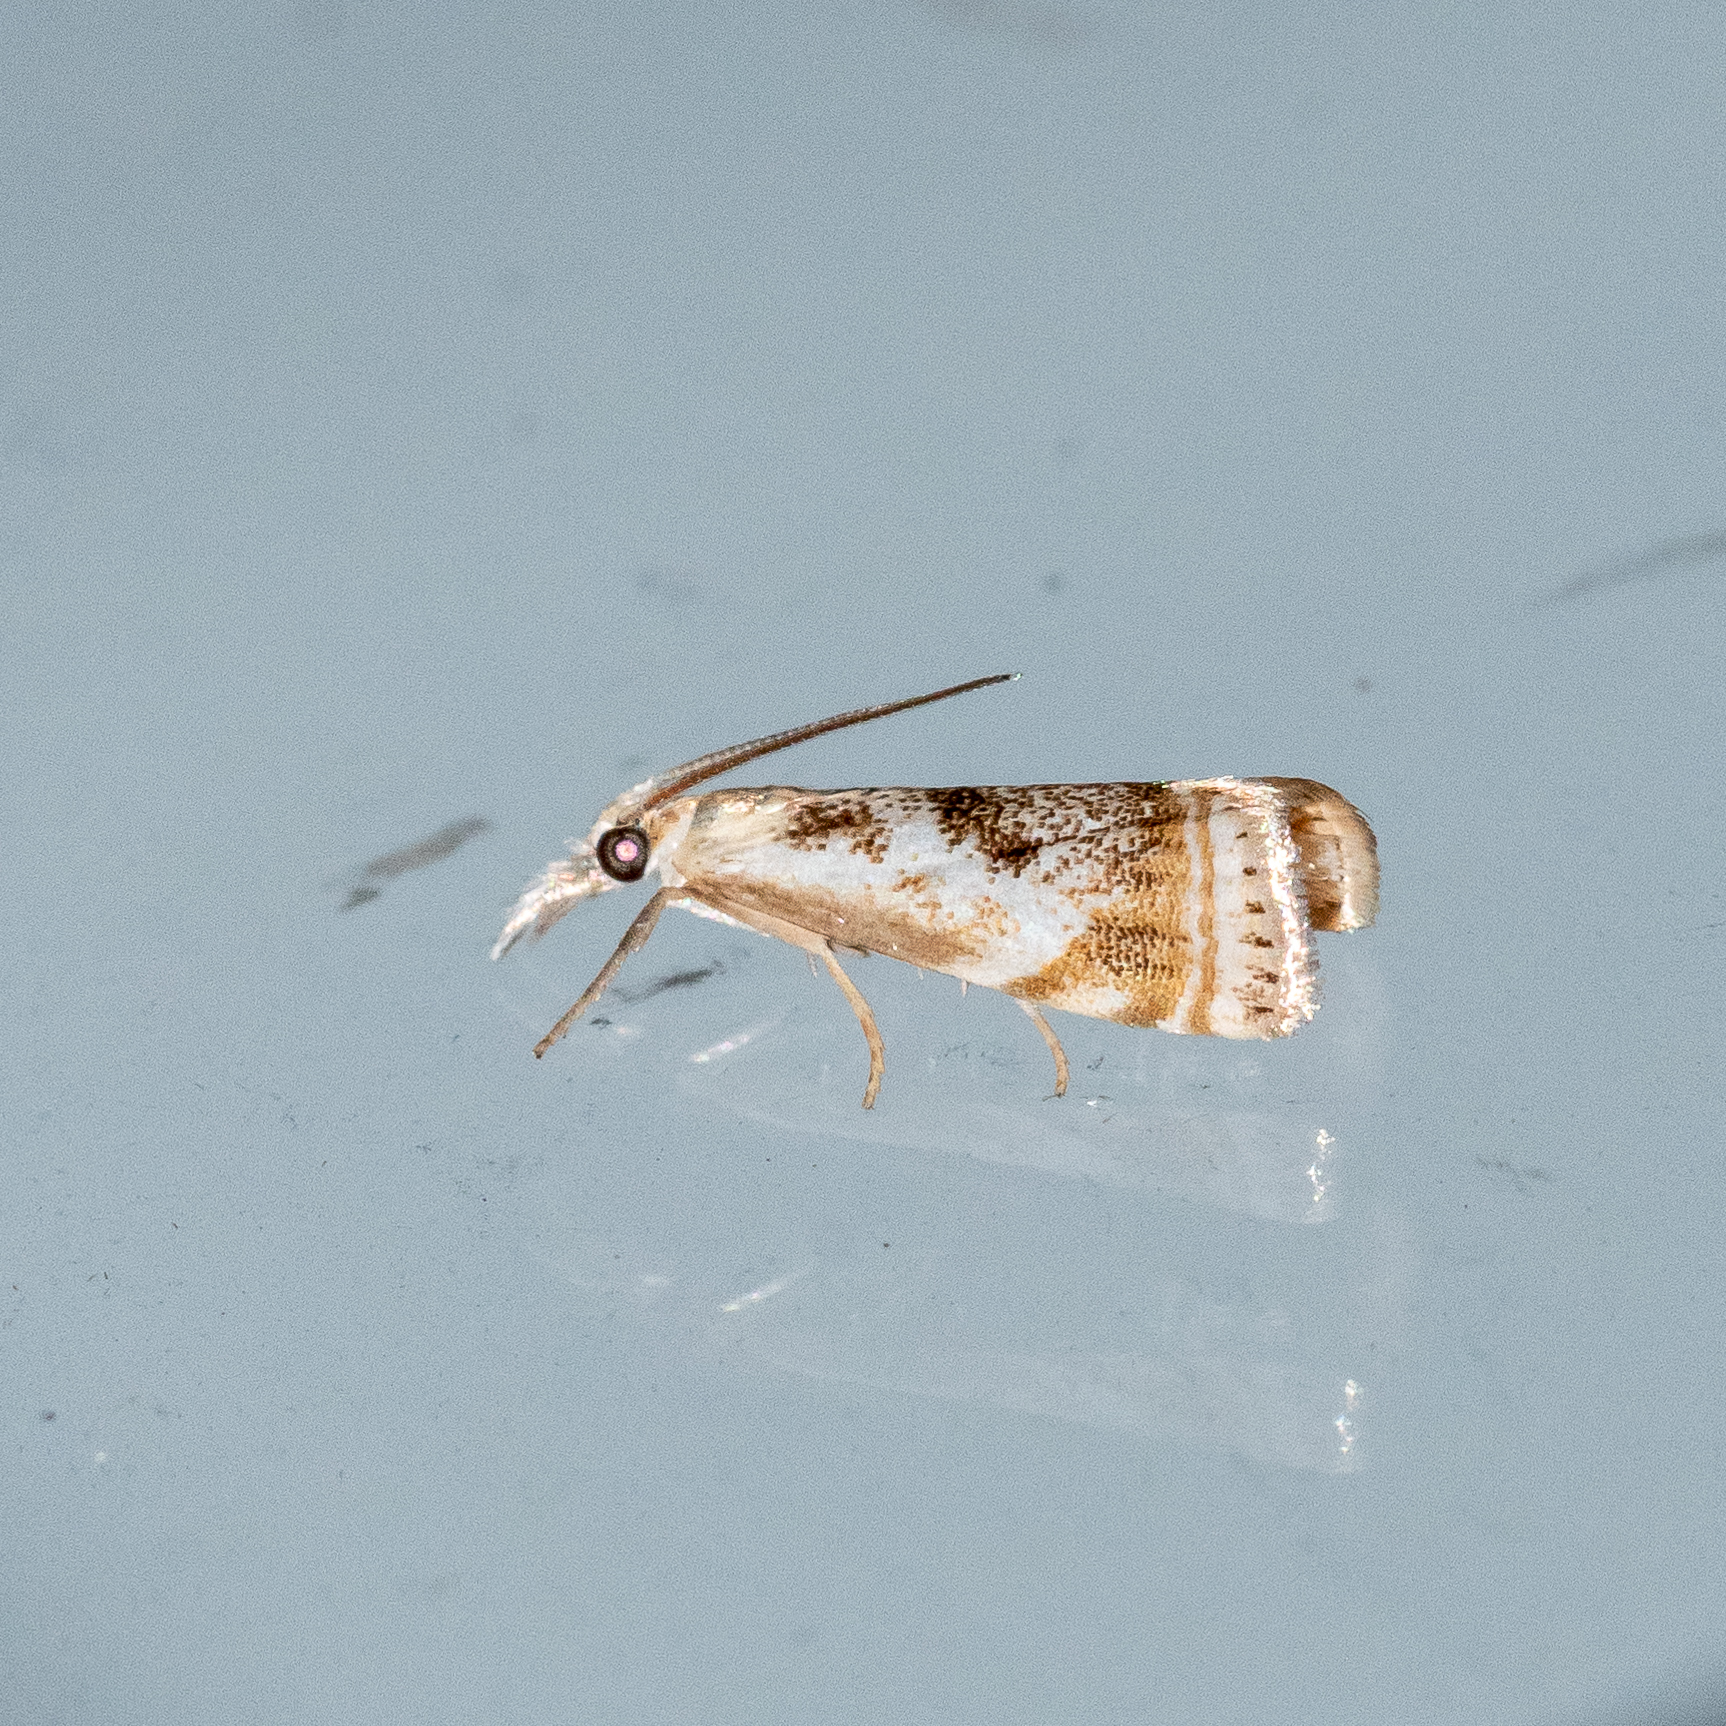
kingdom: Animalia
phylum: Arthropoda
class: Insecta
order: Lepidoptera
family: Crambidae
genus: Microcrambus
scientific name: Microcrambus elegans
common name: Elegant grass-veneer
